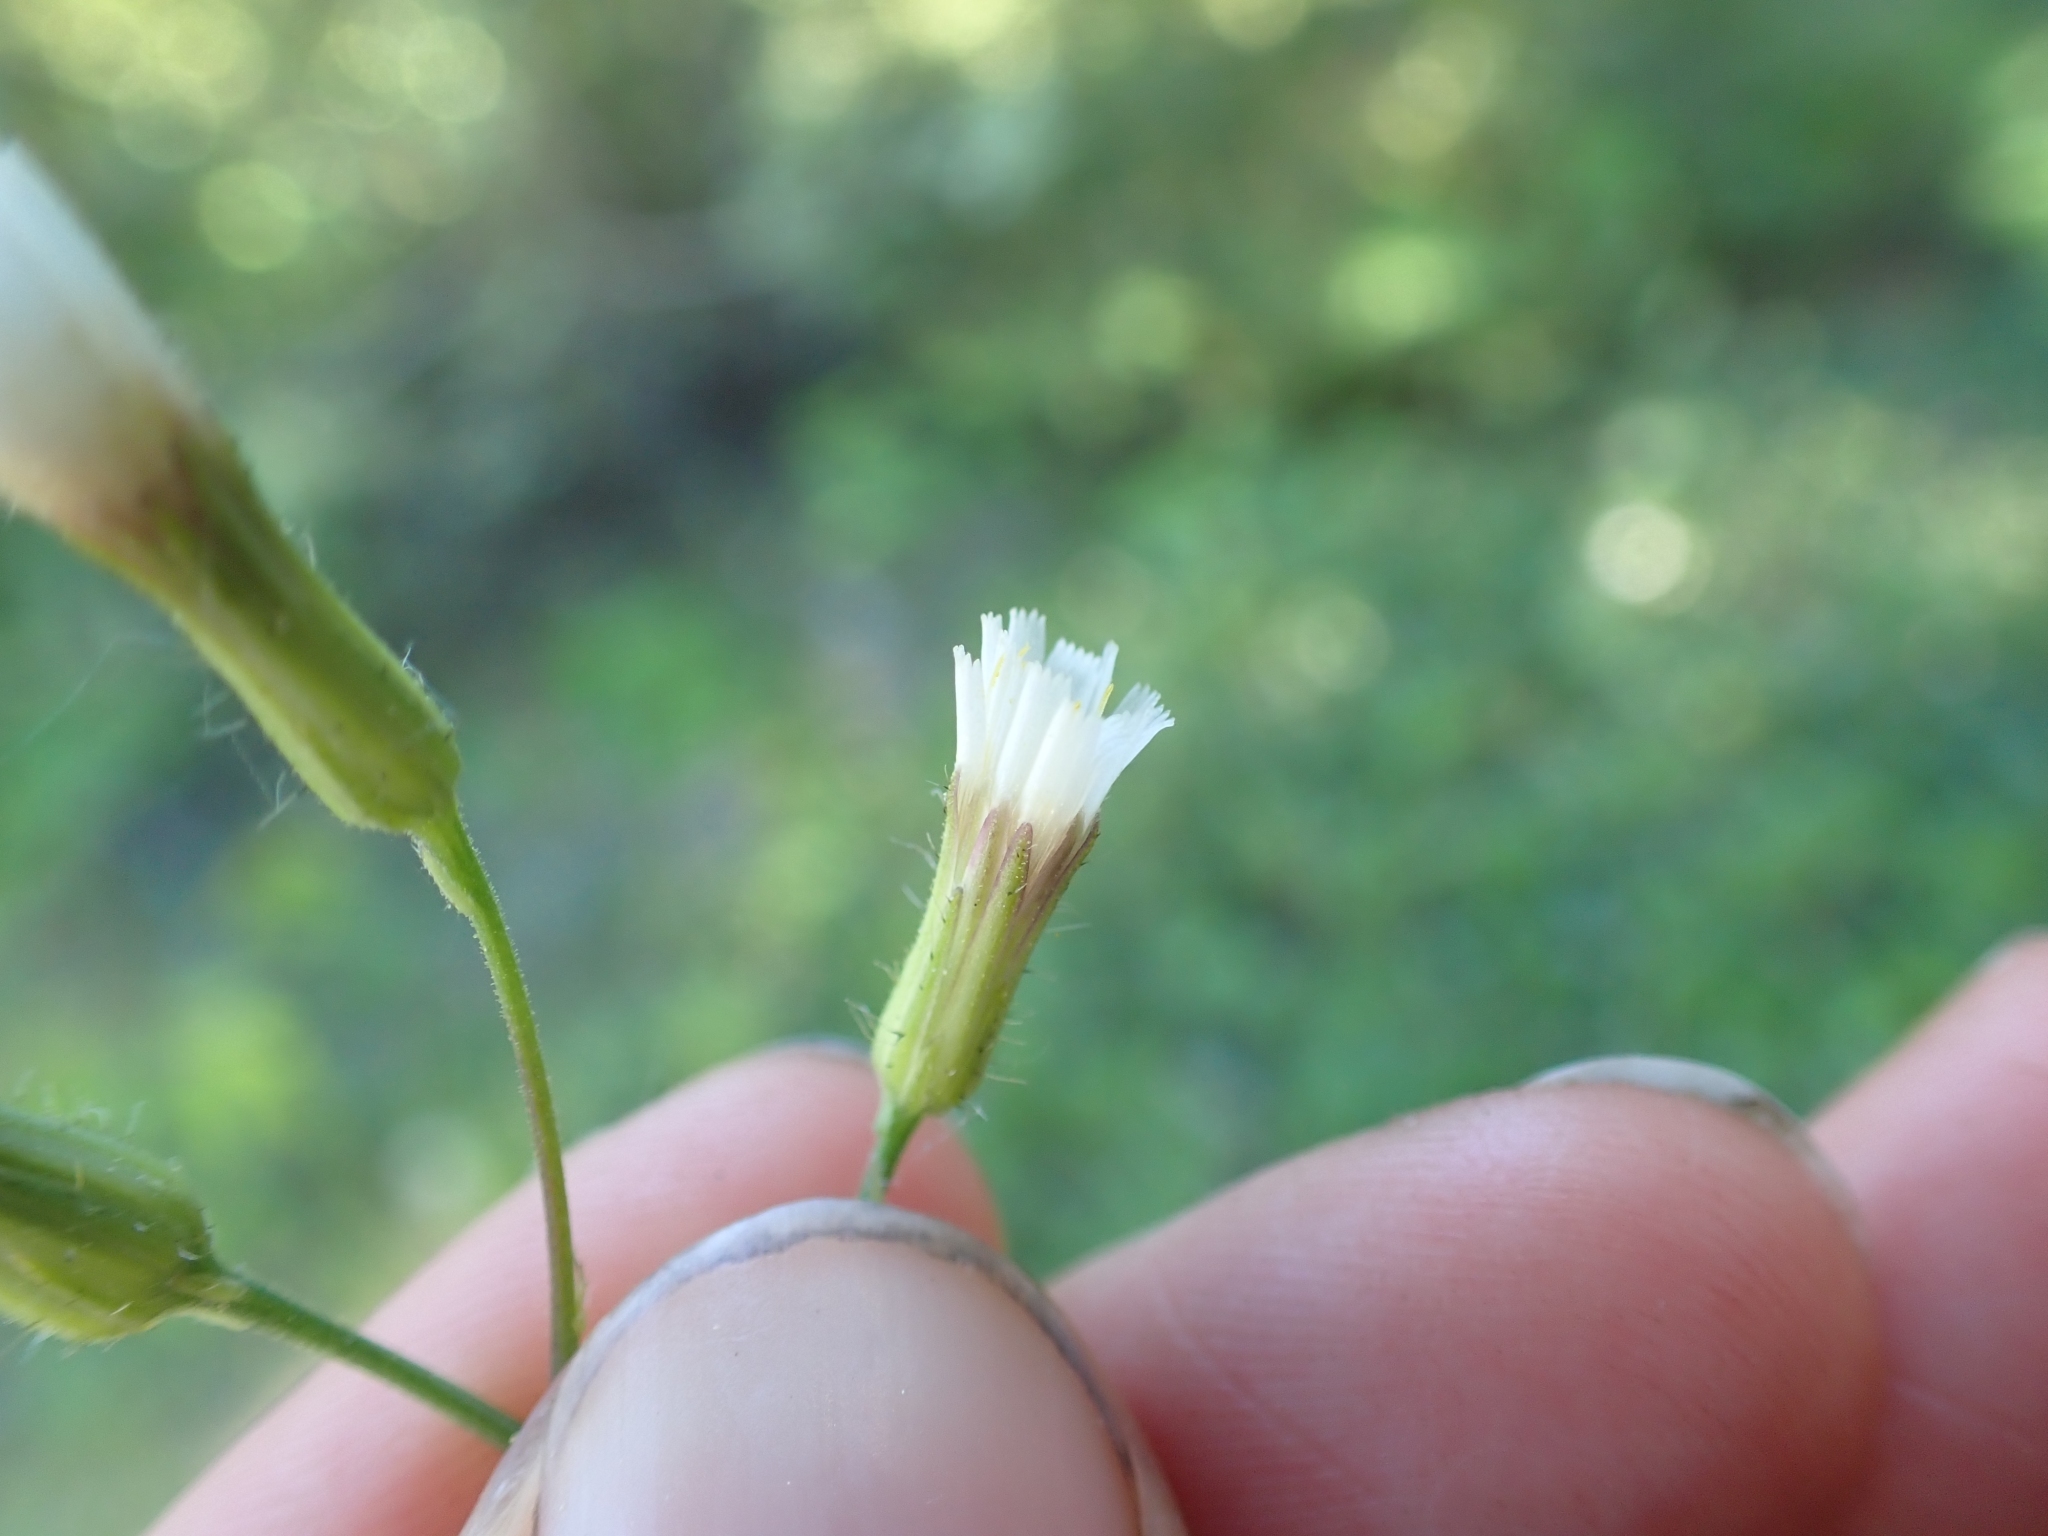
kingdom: Plantae
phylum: Tracheophyta
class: Magnoliopsida
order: Asterales
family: Asteraceae
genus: Hieracium
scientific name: Hieracium albiflorum
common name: White hawkweed
